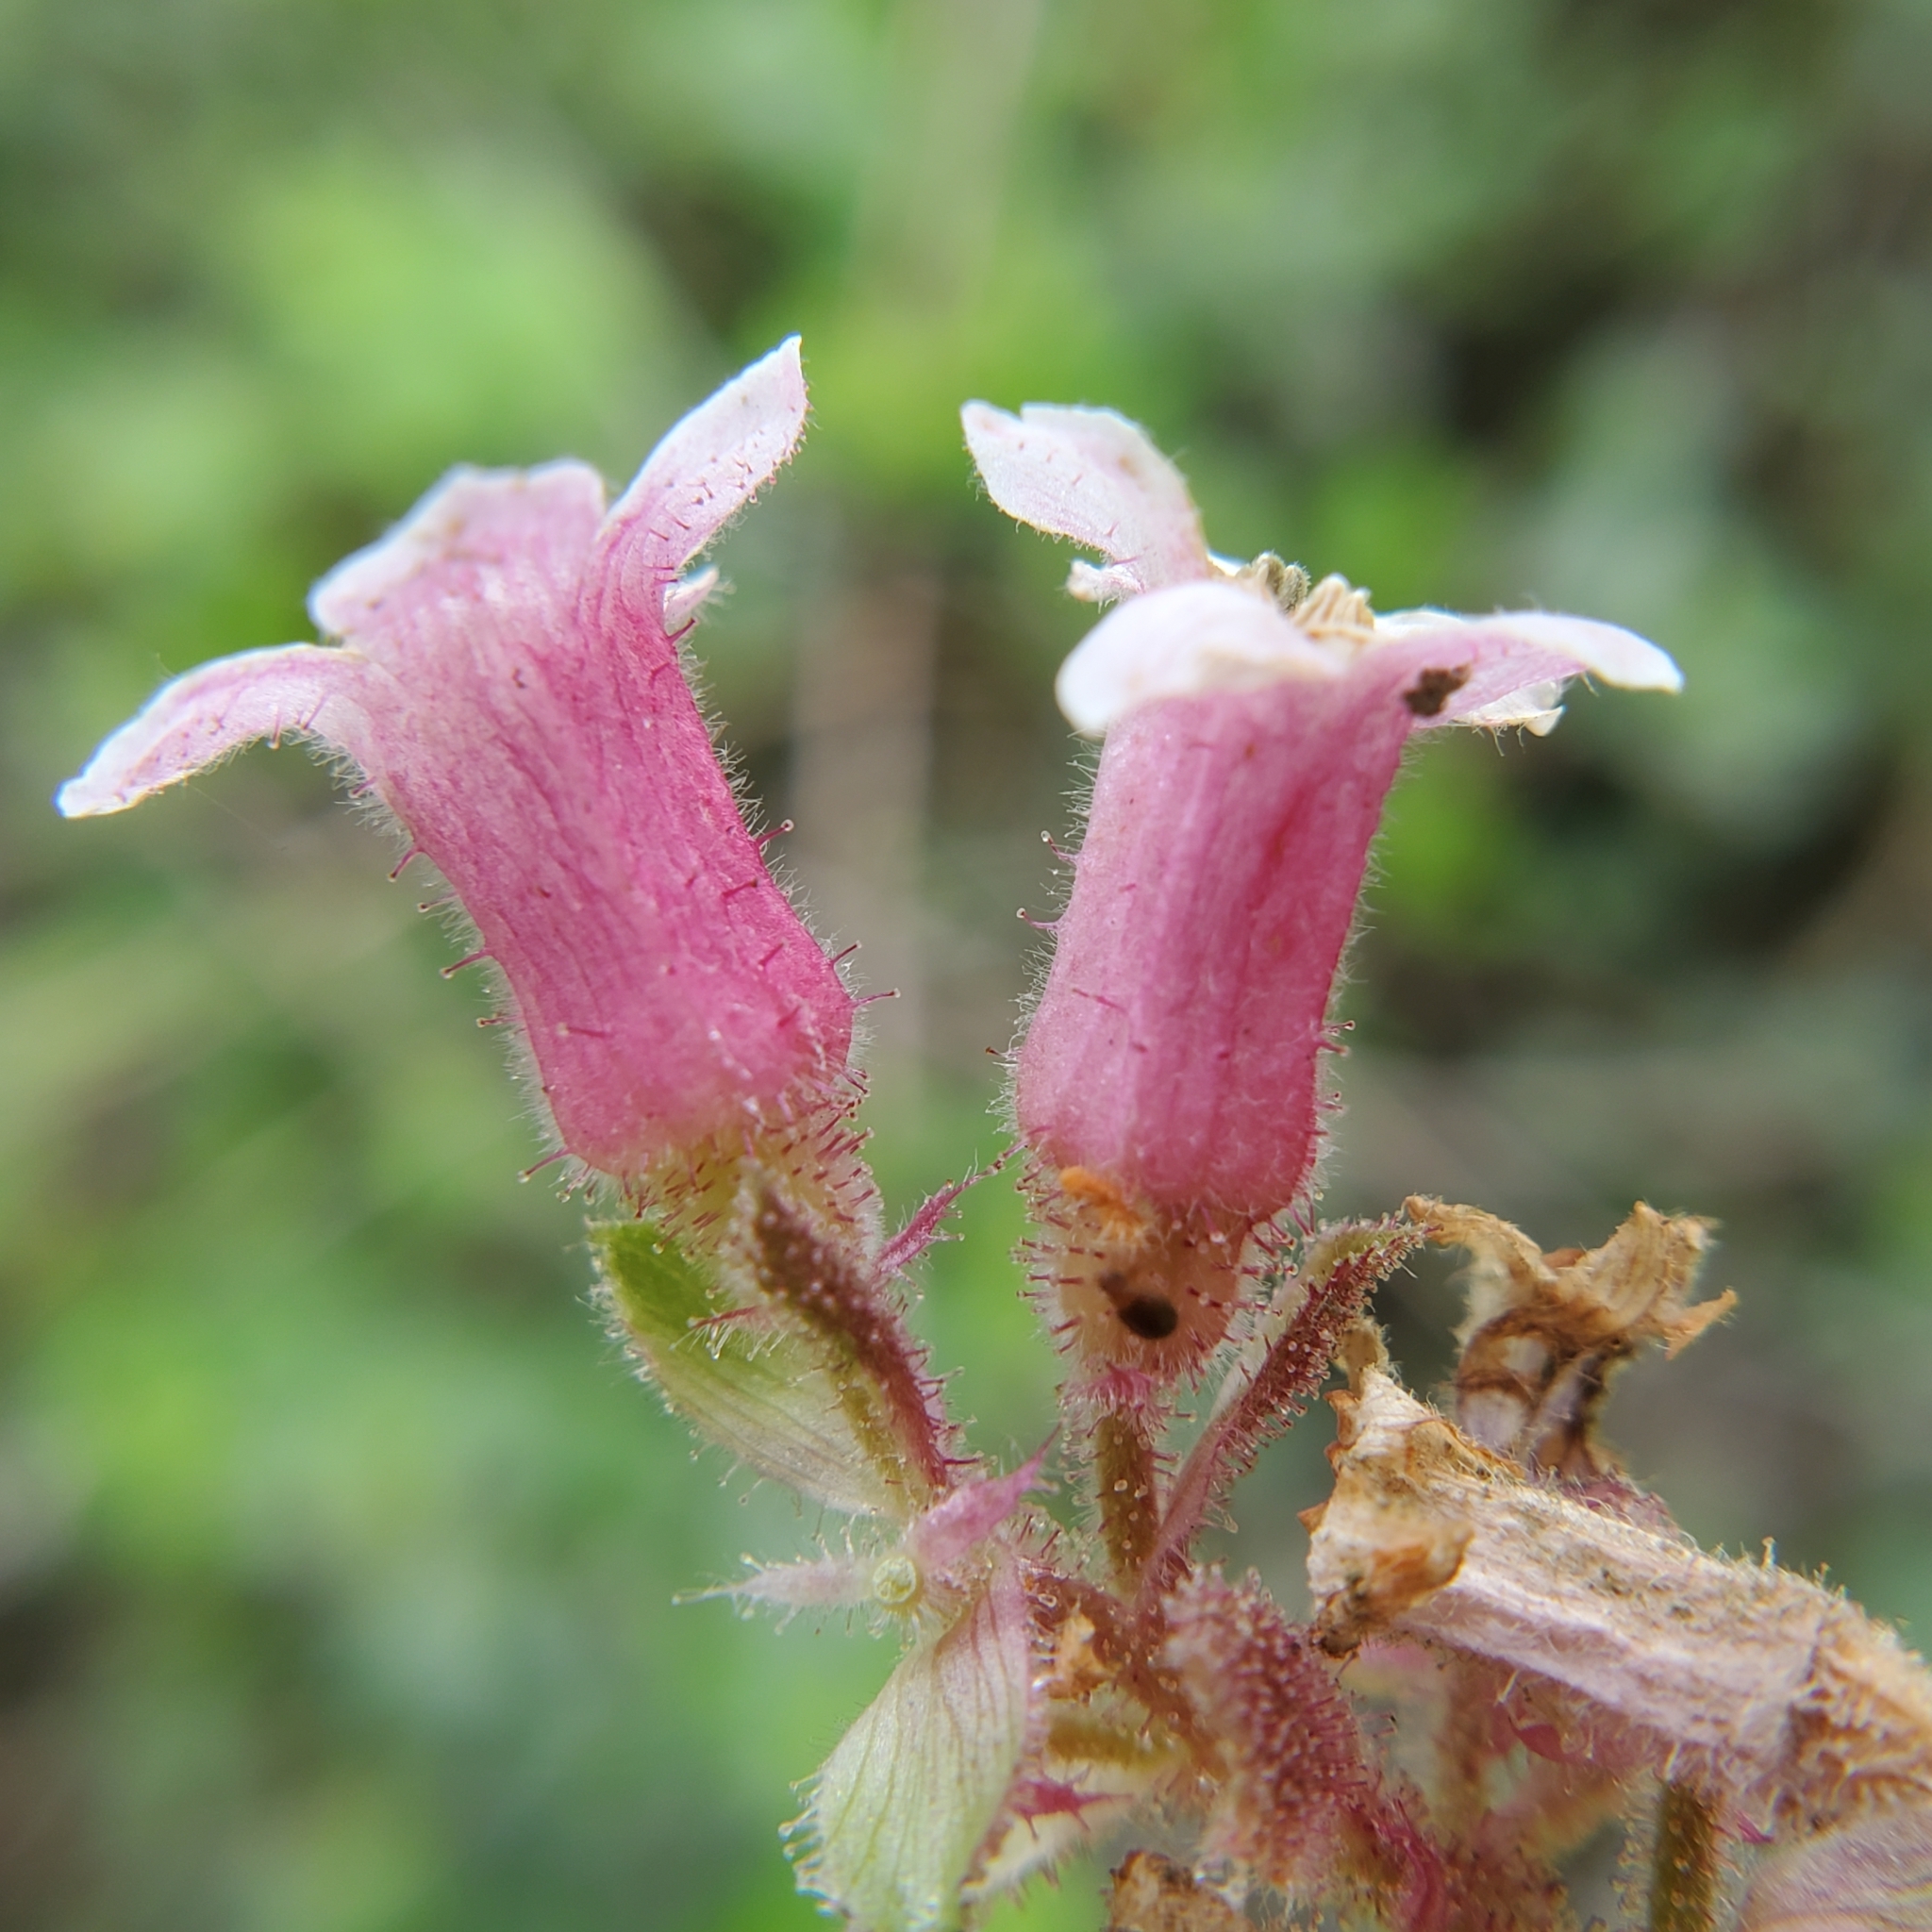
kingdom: Plantae
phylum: Tracheophyta
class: Magnoliopsida
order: Saxifragales
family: Grossulariaceae
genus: Ribes
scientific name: Ribes malvaceum
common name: Chaparral currant
